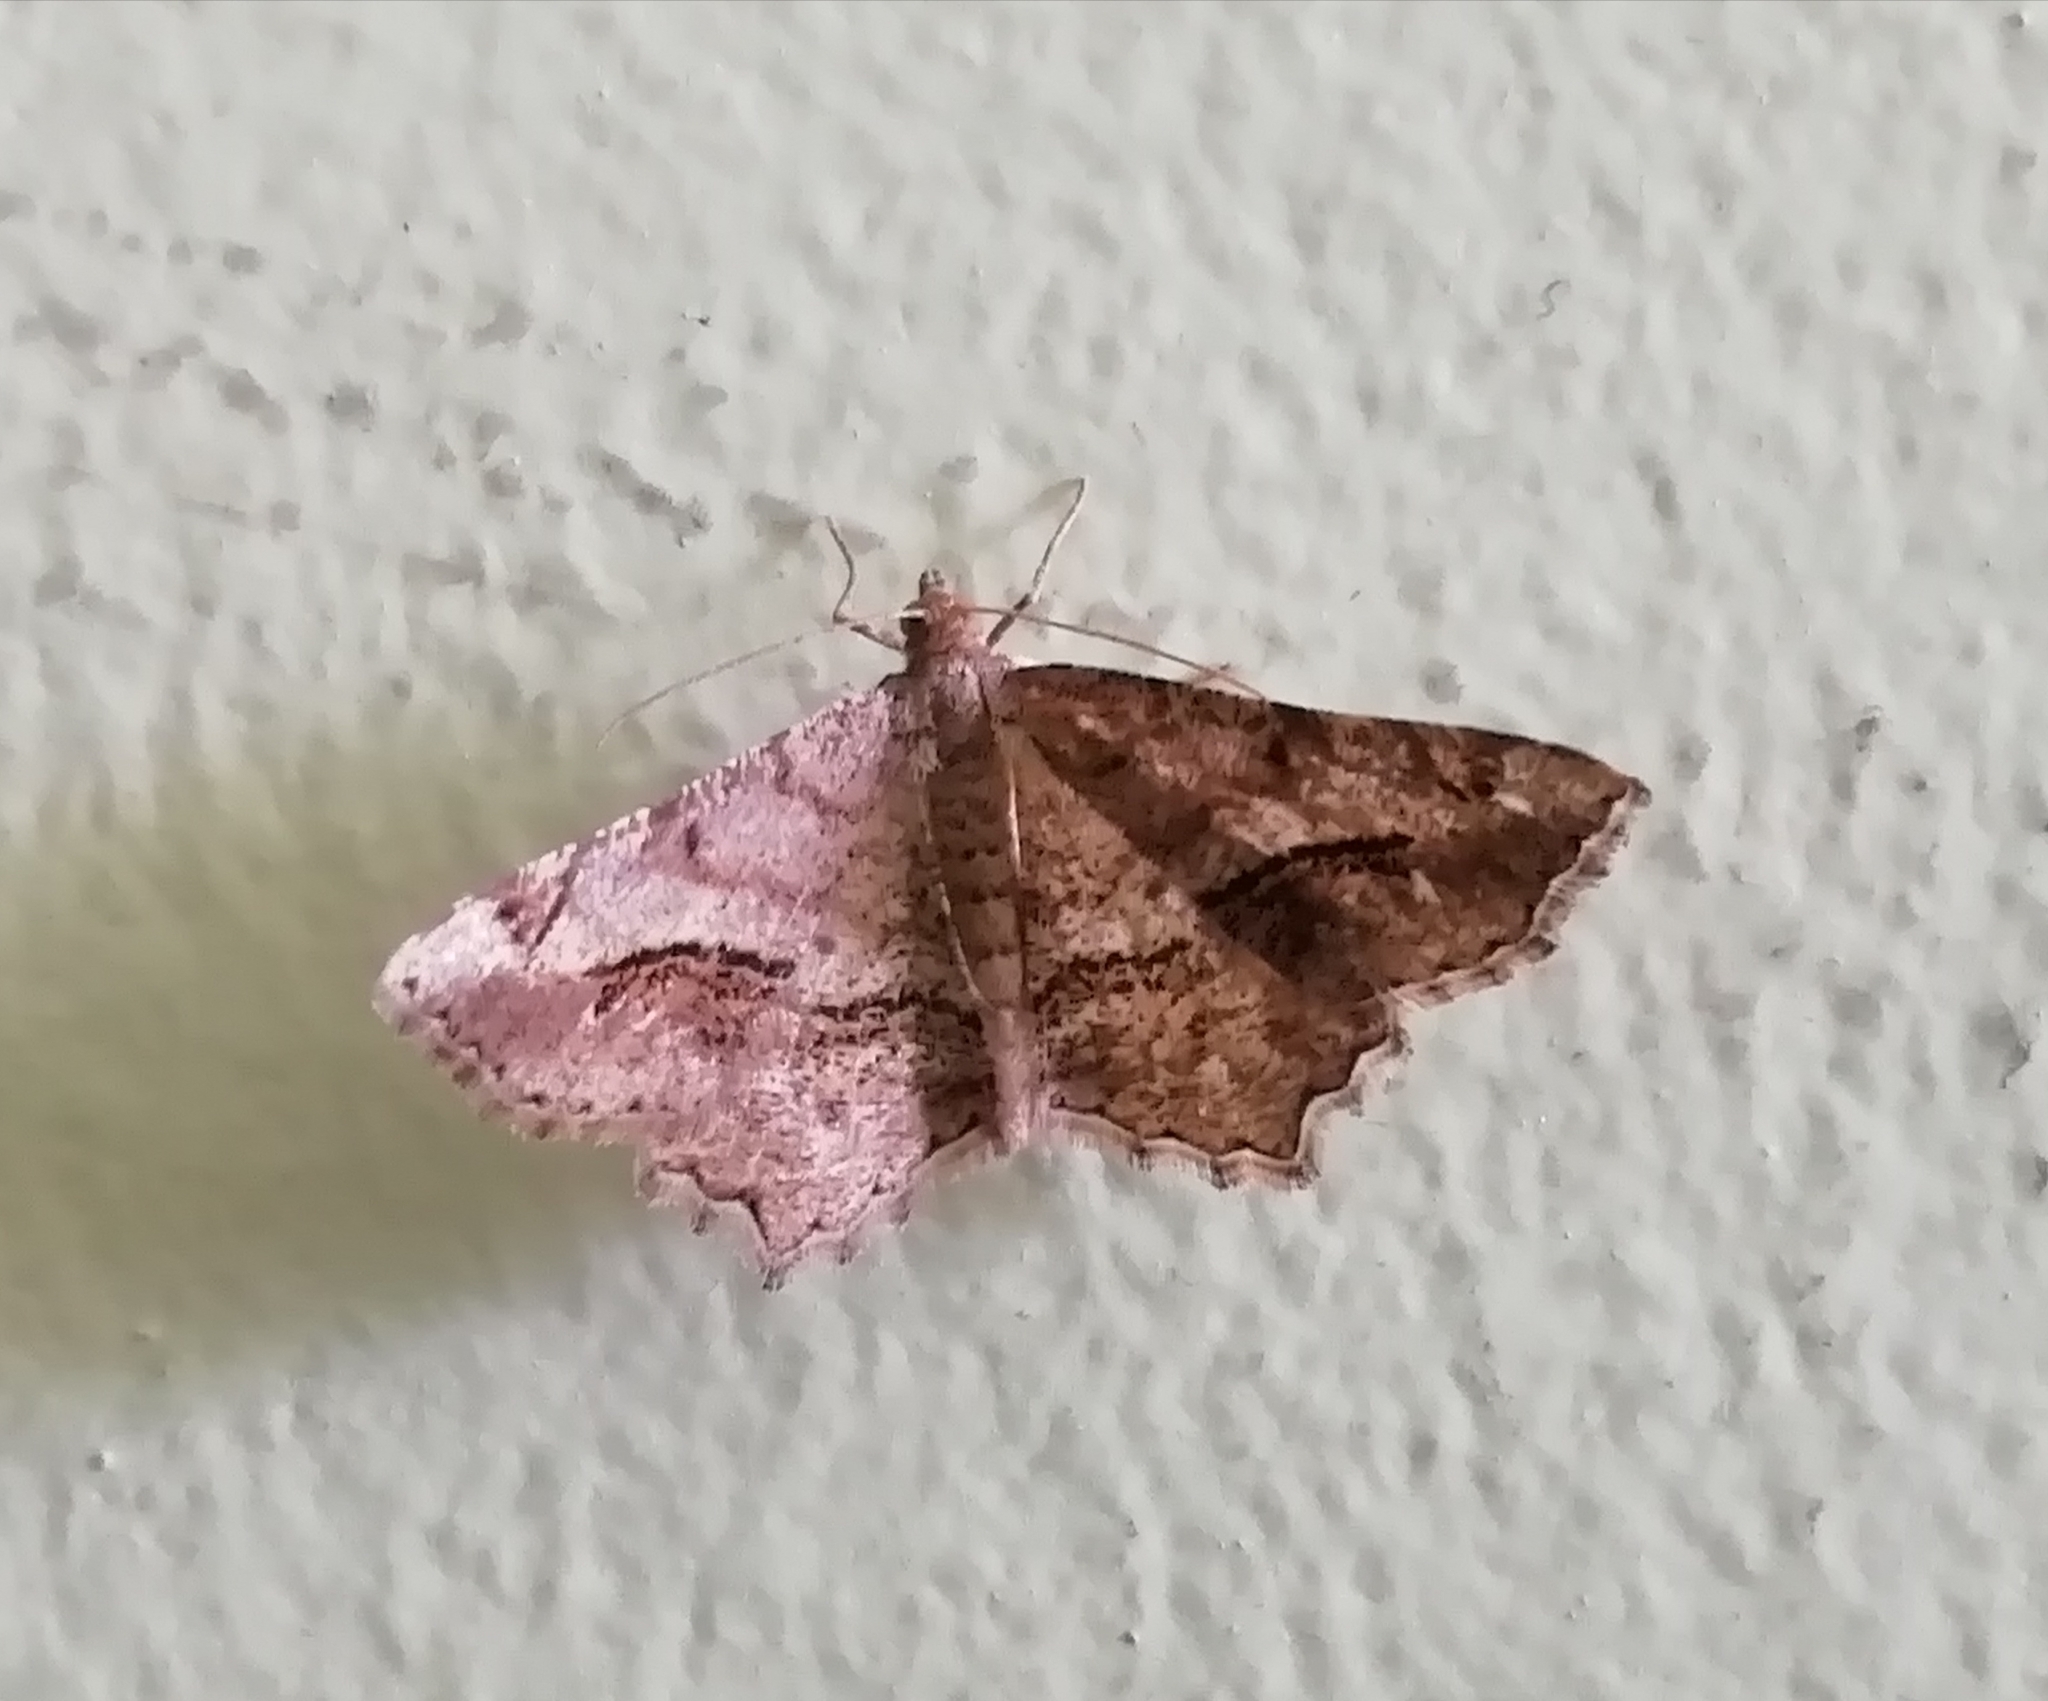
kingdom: Animalia
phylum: Arthropoda
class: Insecta
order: Lepidoptera
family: Geometridae
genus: Chiasmia
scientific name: Chiasmia aestimaria
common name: Tamarisk peacock
